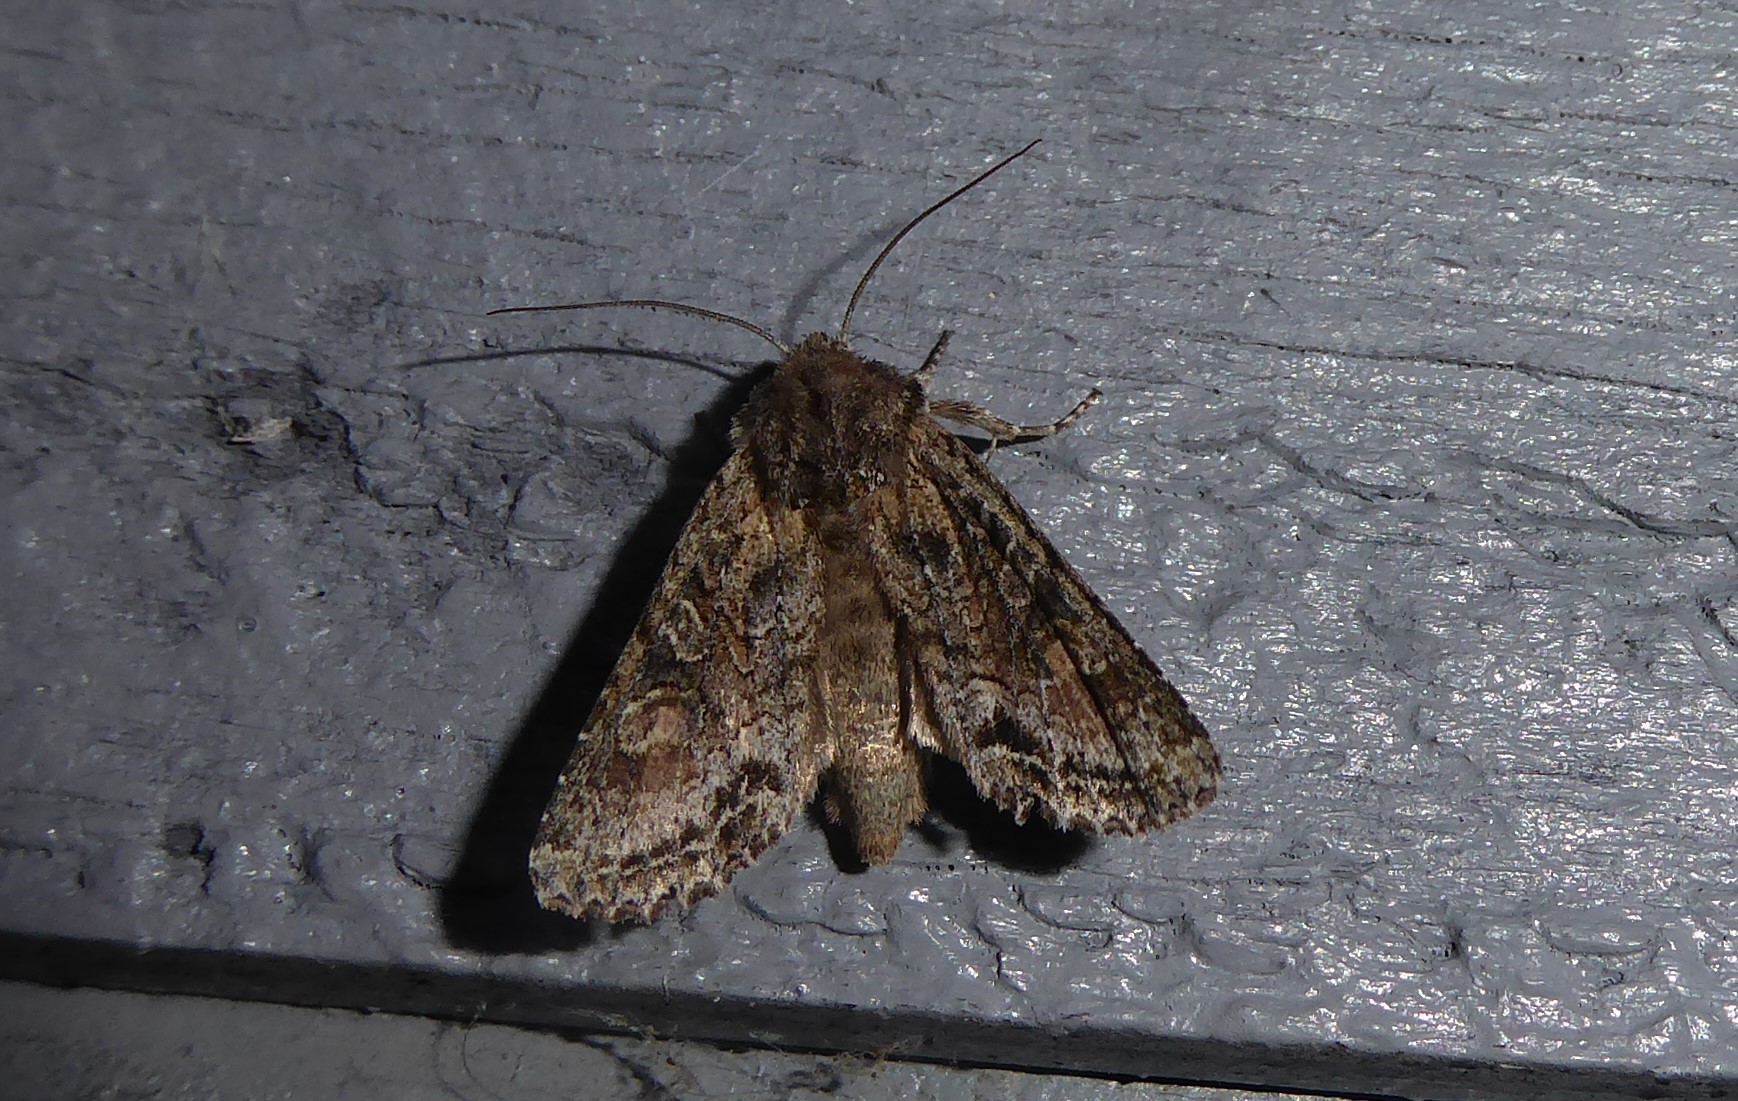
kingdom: Animalia
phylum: Arthropoda
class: Insecta
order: Lepidoptera
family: Noctuidae
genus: Ichneutica
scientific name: Ichneutica mutans
